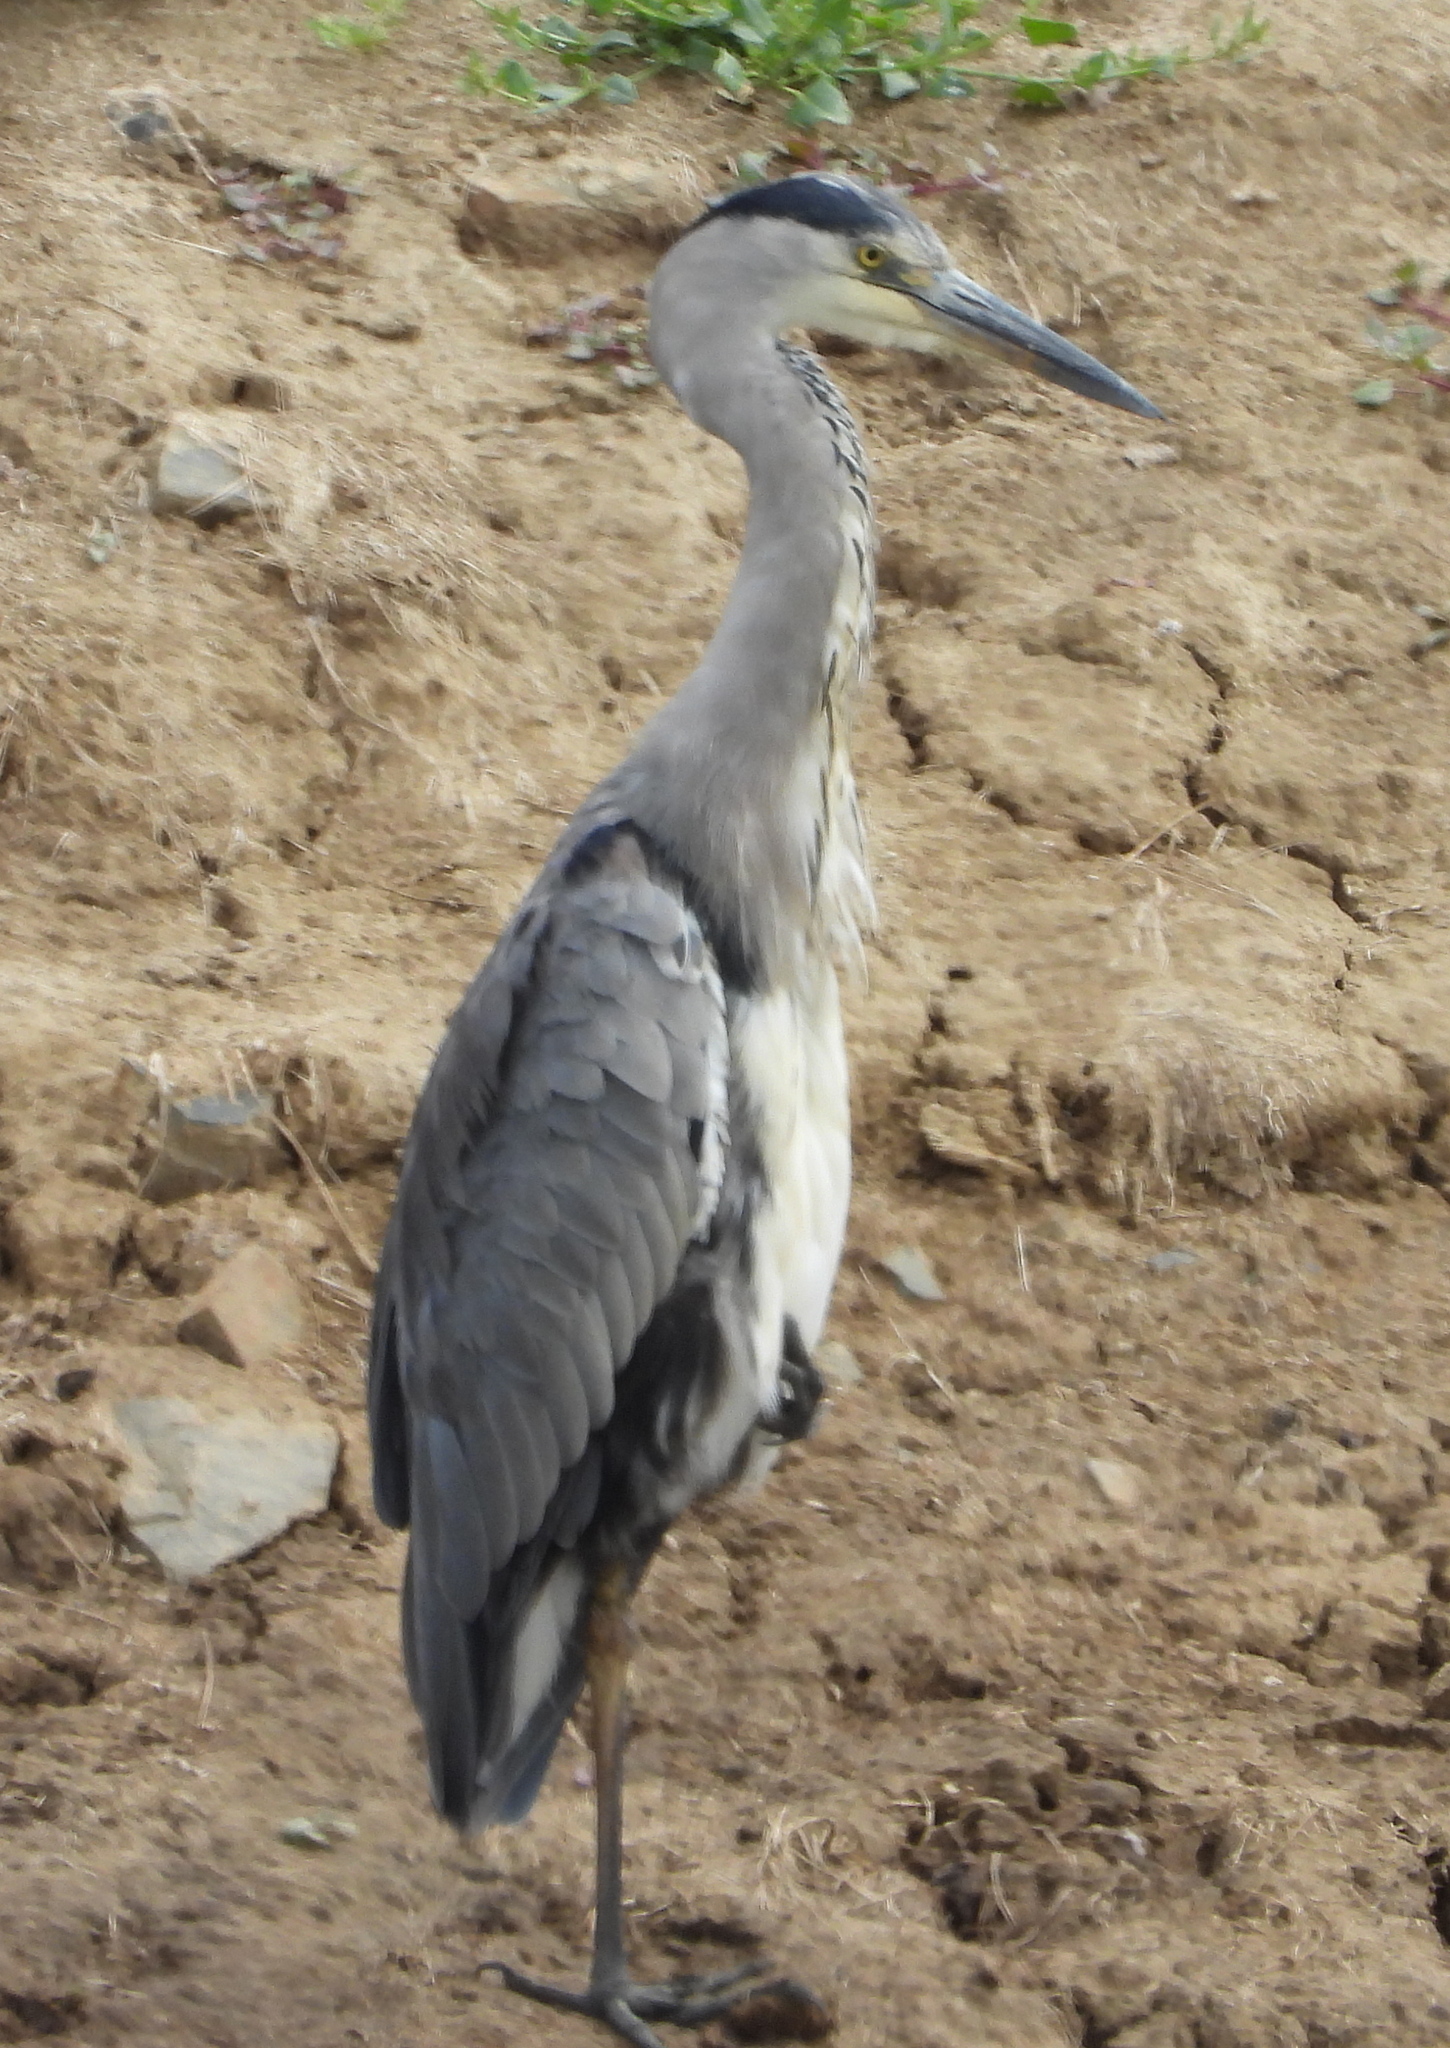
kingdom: Animalia
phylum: Chordata
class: Aves
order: Pelecaniformes
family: Ardeidae
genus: Ardea
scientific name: Ardea cinerea
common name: Grey heron
